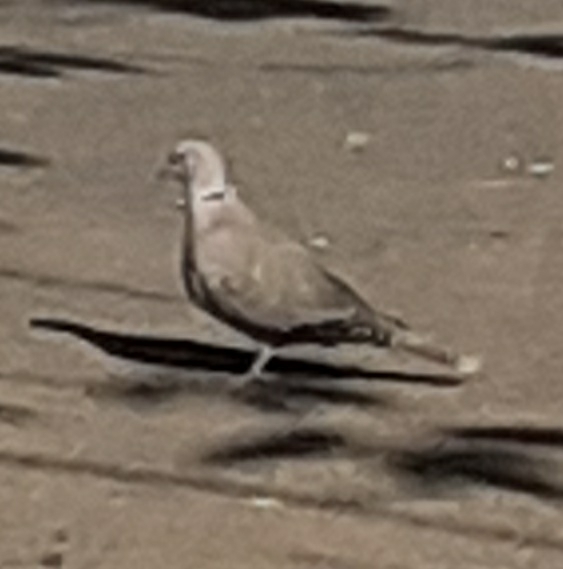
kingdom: Animalia
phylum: Chordata
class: Aves
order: Columbiformes
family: Columbidae
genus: Streptopelia
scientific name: Streptopelia decaocto
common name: Eurasian collared dove
